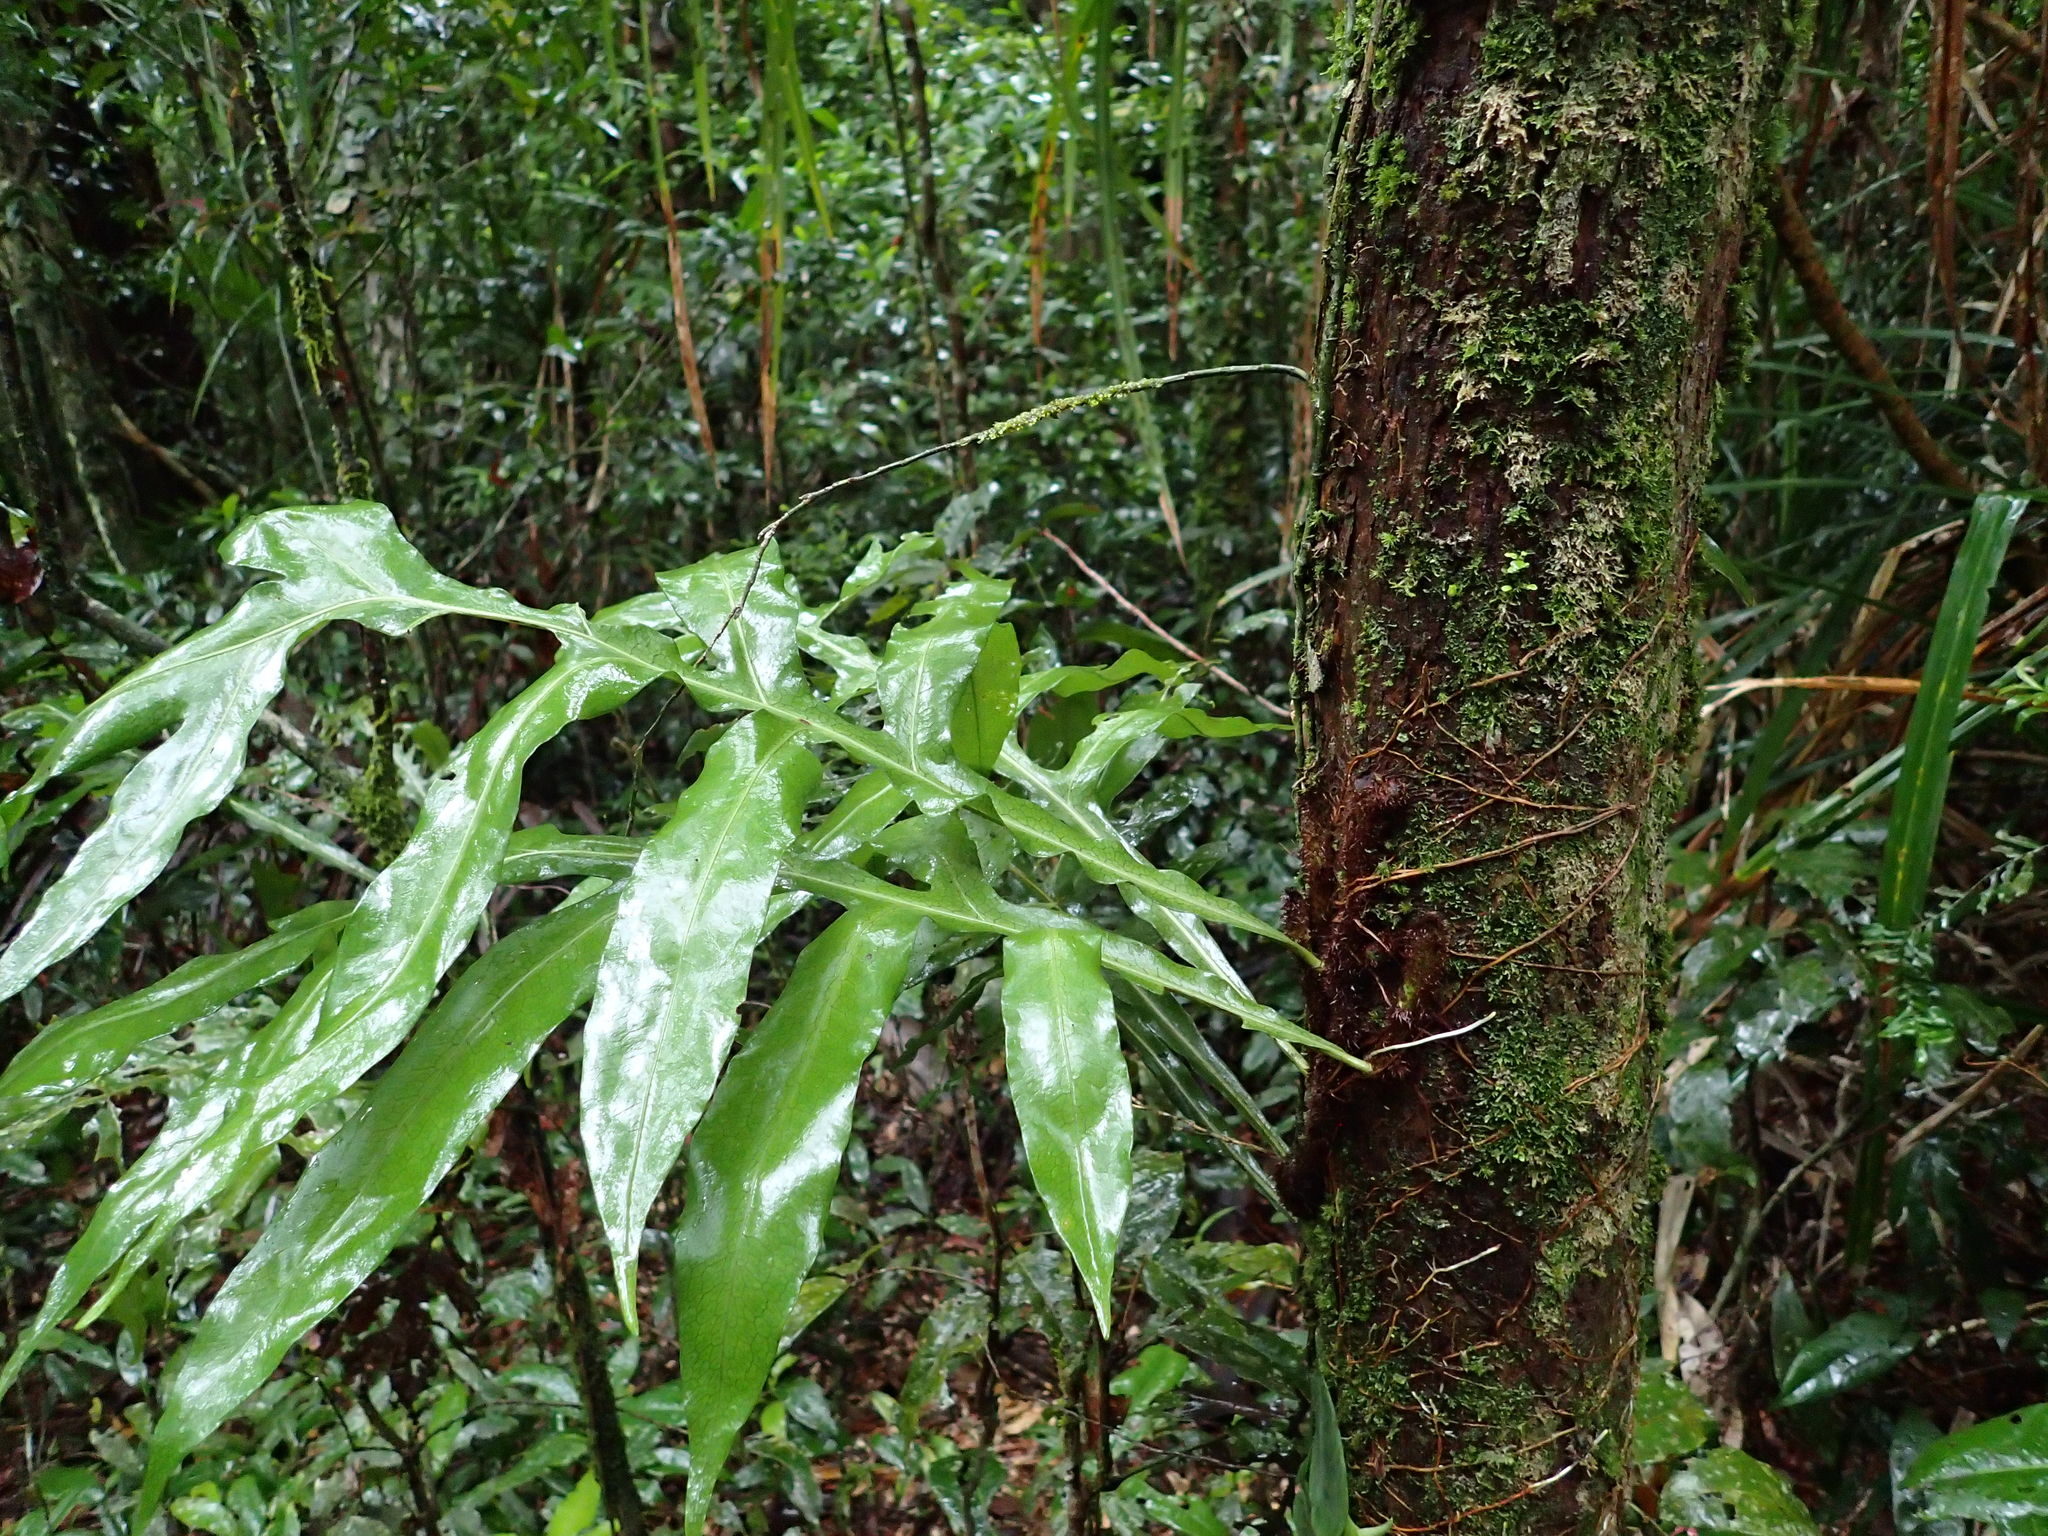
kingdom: Plantae
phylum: Tracheophyta
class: Polypodiopsida
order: Polypodiales
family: Polypodiaceae
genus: Lecanopteris
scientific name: Lecanopteris ampla
